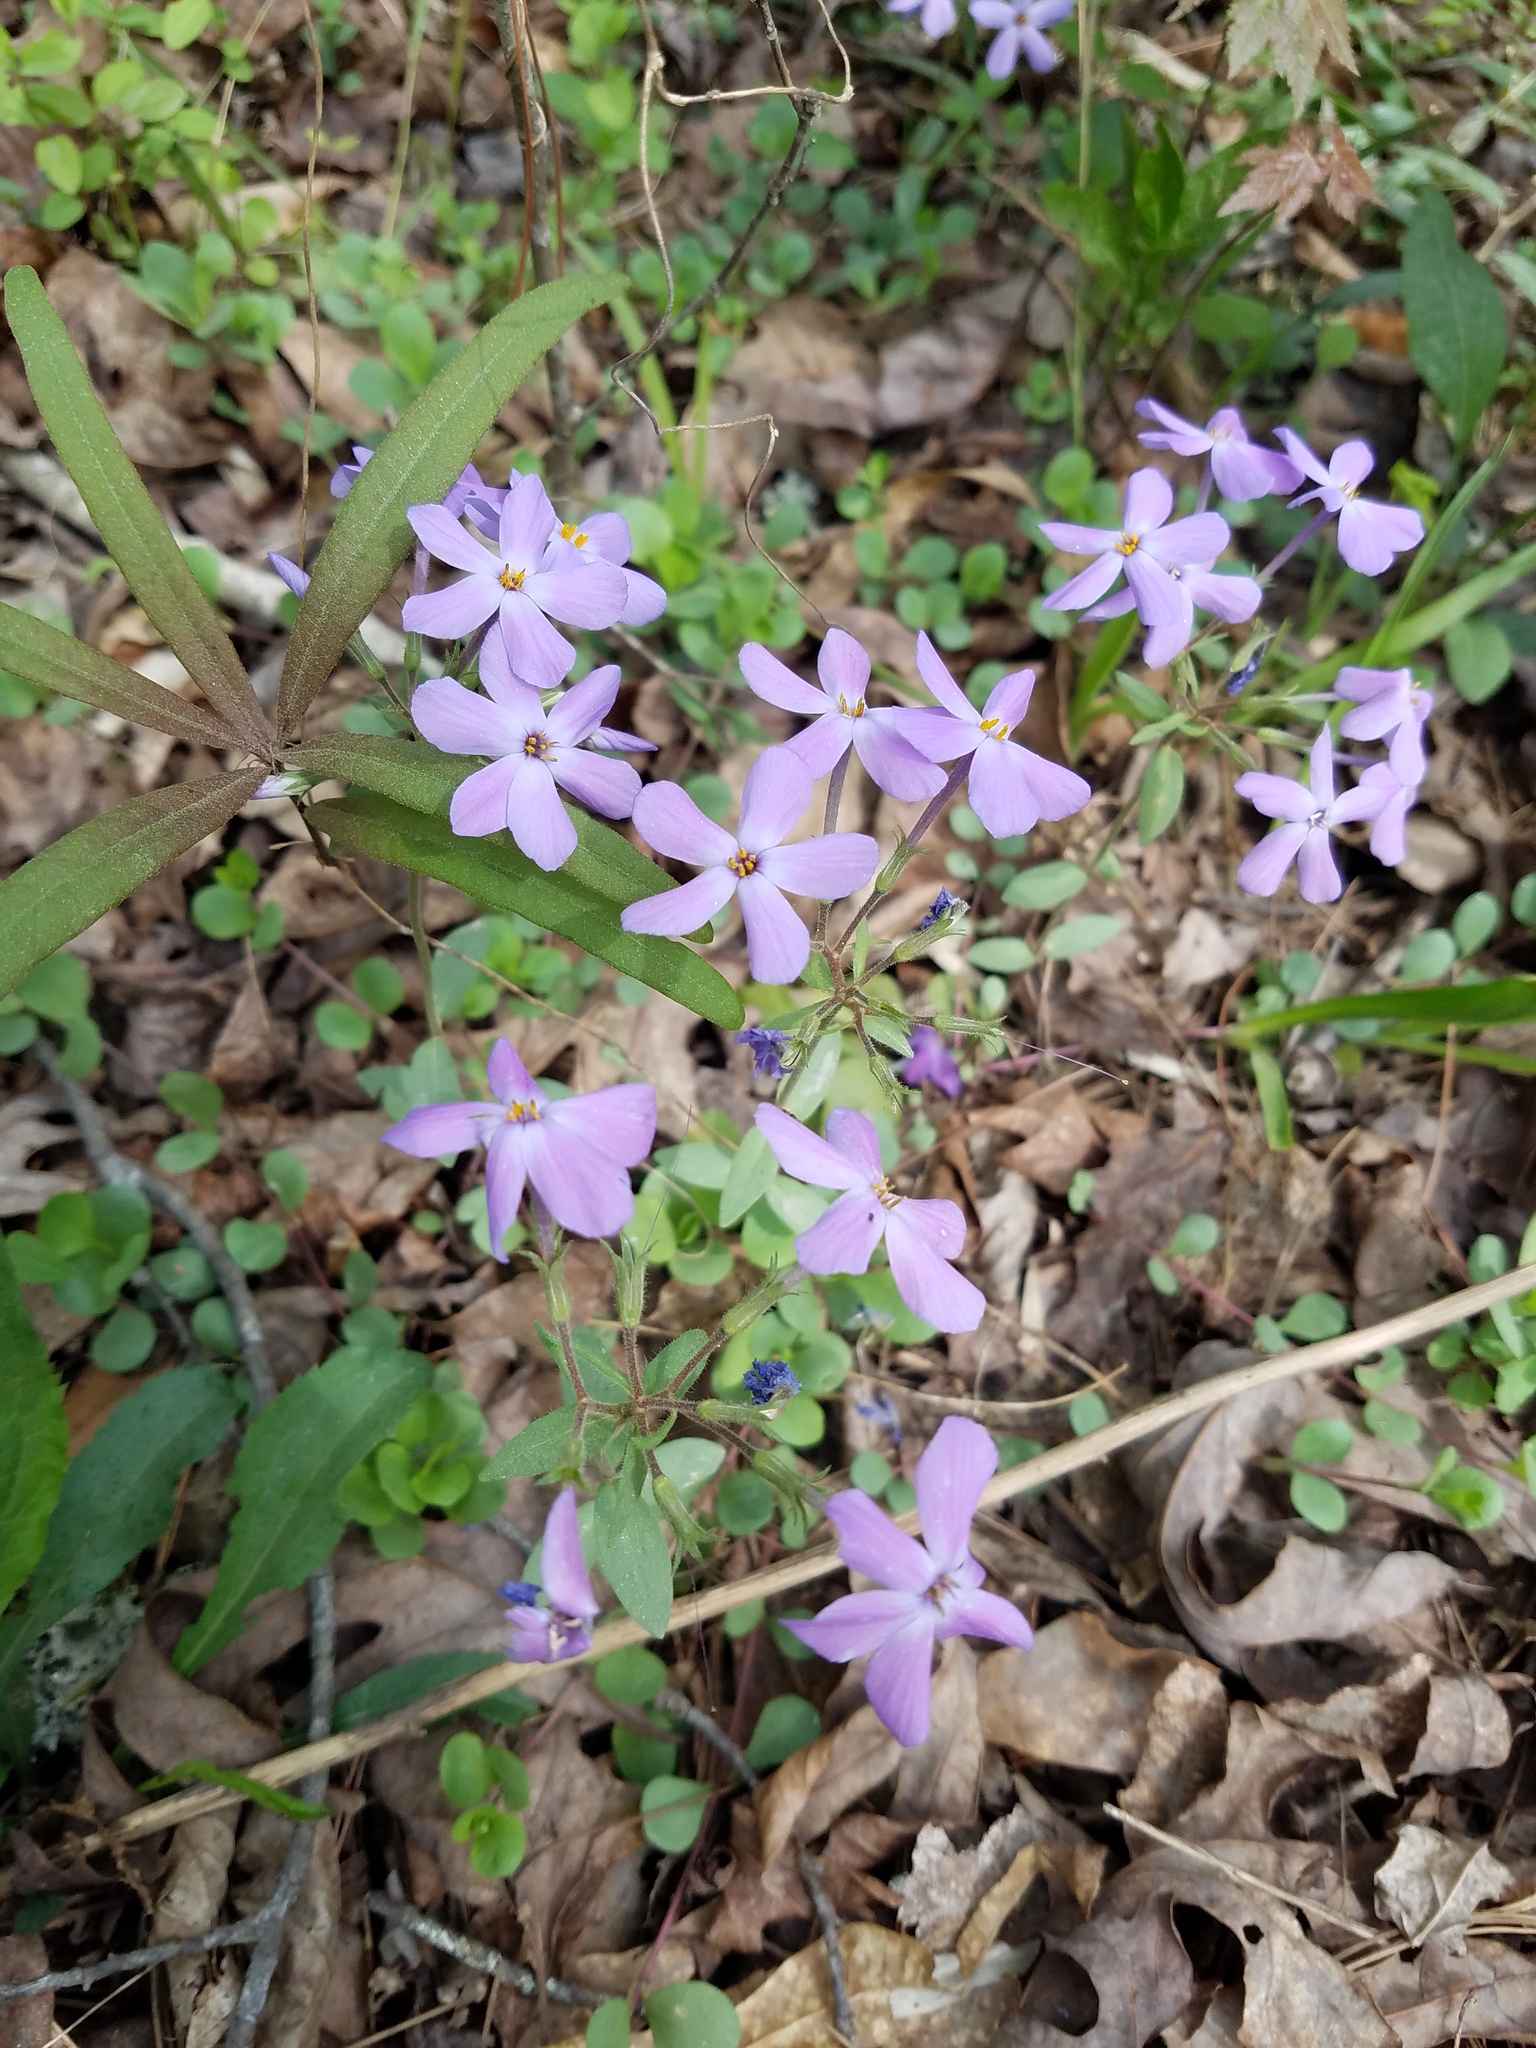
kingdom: Plantae
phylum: Tracheophyta
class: Magnoliopsida
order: Ericales
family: Polemoniaceae
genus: Phlox
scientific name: Phlox stolonifera
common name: Creeping phlox
